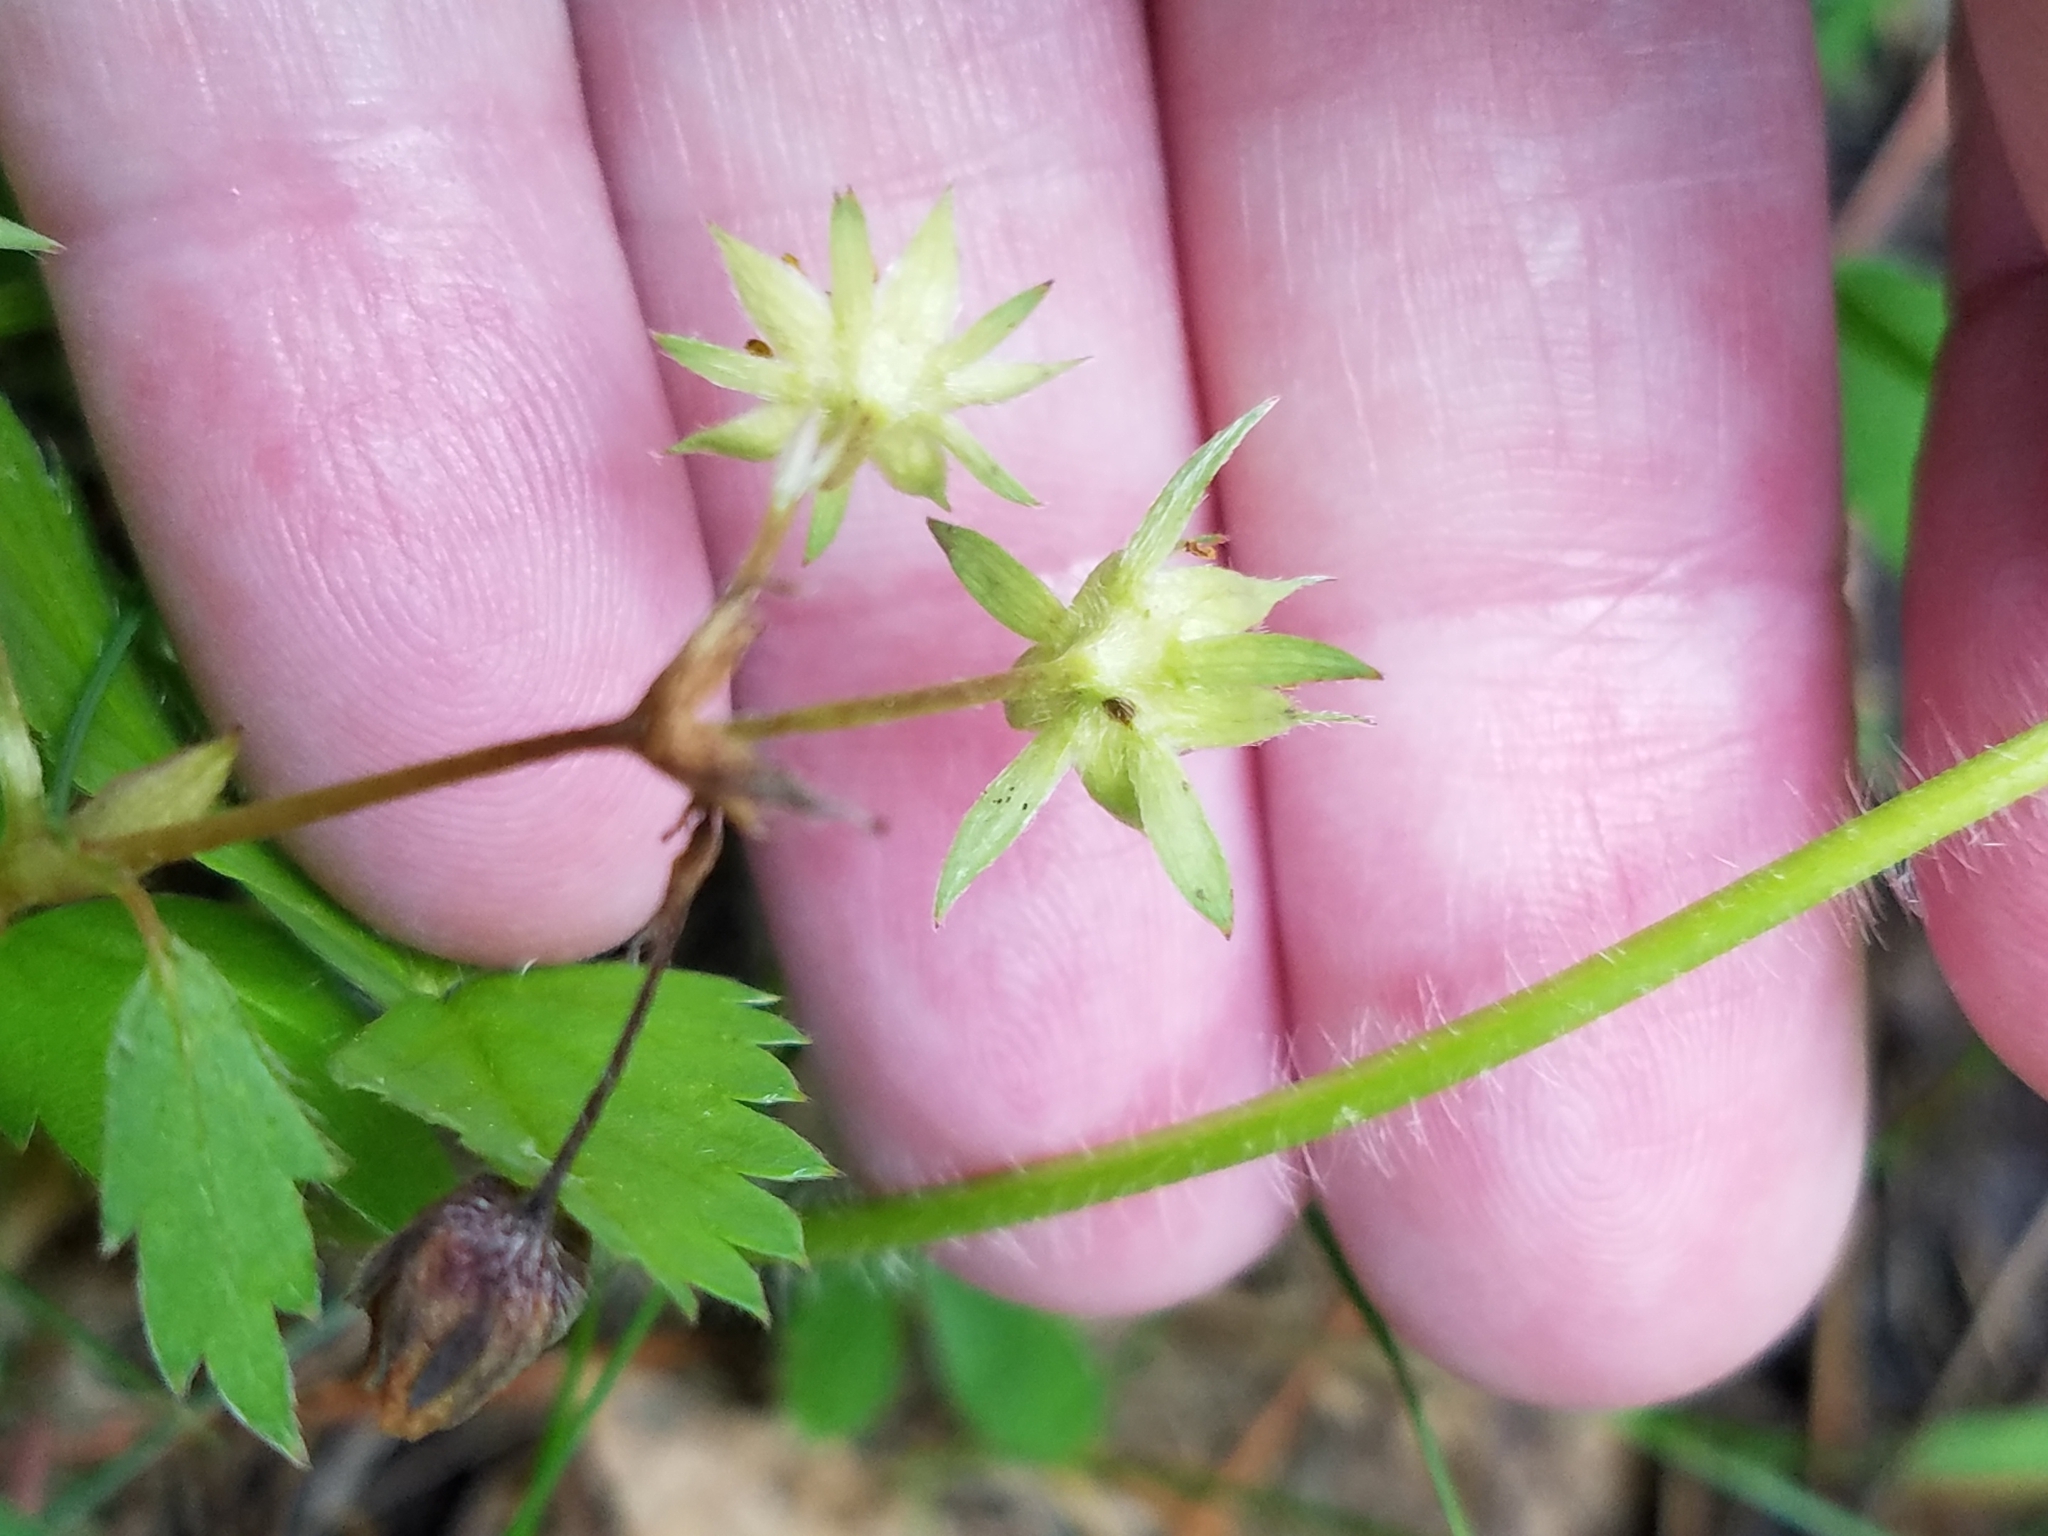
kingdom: Plantae
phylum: Tracheophyta
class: Magnoliopsida
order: Rosales
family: Rosaceae
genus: Fragaria
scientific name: Fragaria virginiana
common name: Thickleaved wild strawberry
